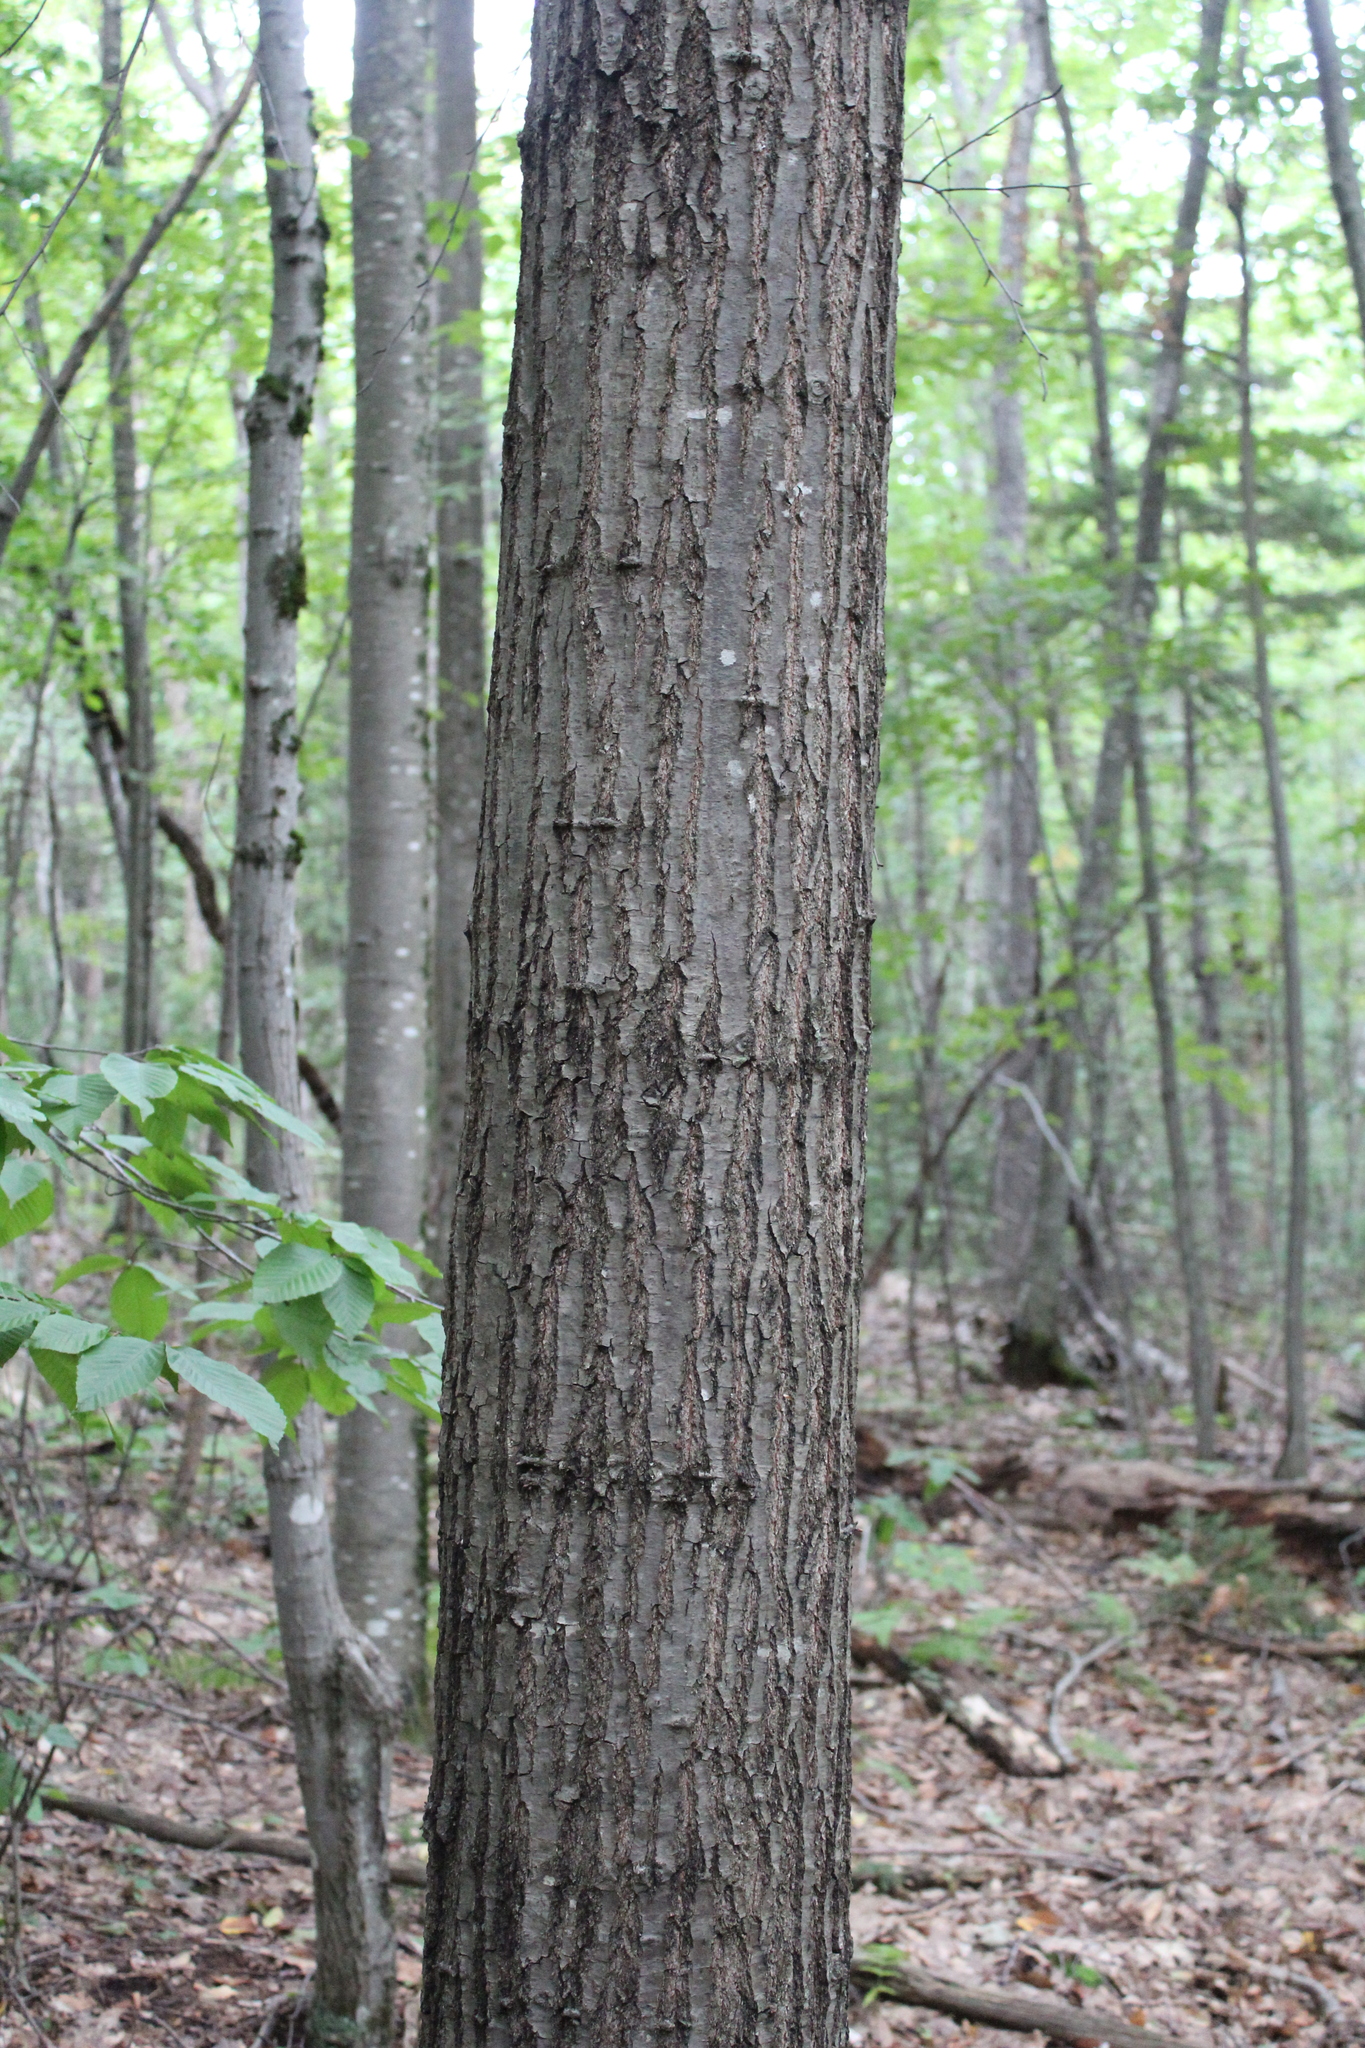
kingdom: Plantae
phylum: Tracheophyta
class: Magnoliopsida
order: Fagales
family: Fagaceae
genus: Quercus
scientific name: Quercus rubra
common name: Red oak
